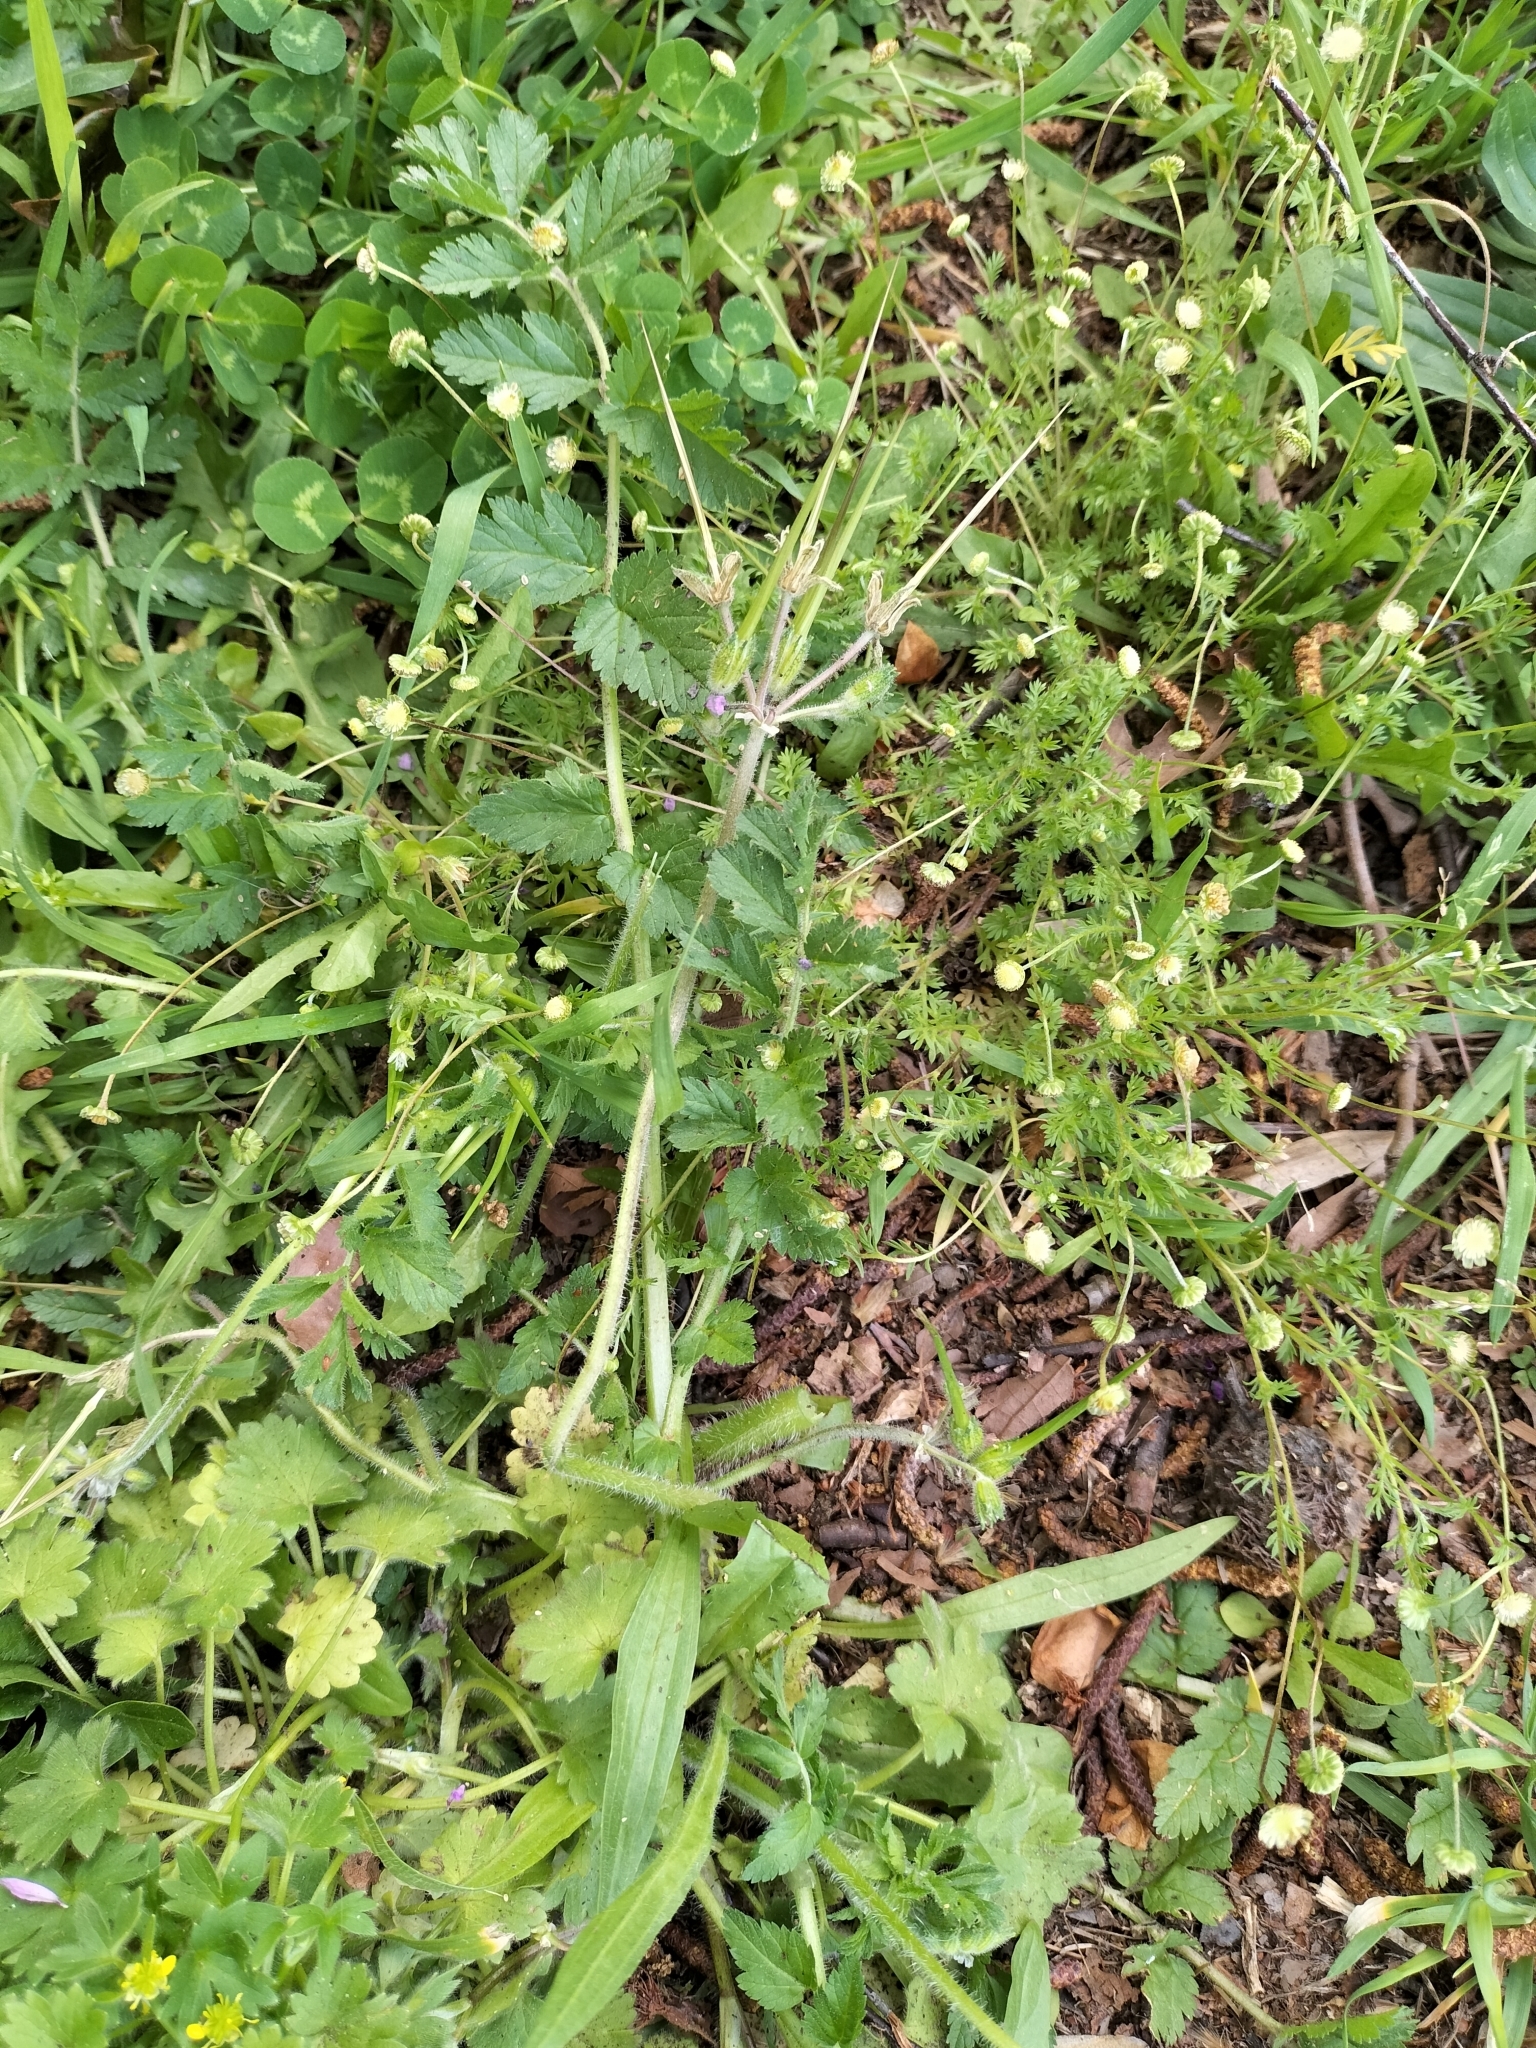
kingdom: Plantae
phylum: Tracheophyta
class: Magnoliopsida
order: Geraniales
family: Geraniaceae
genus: Erodium
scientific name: Erodium moschatum
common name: Musk stork's-bill
